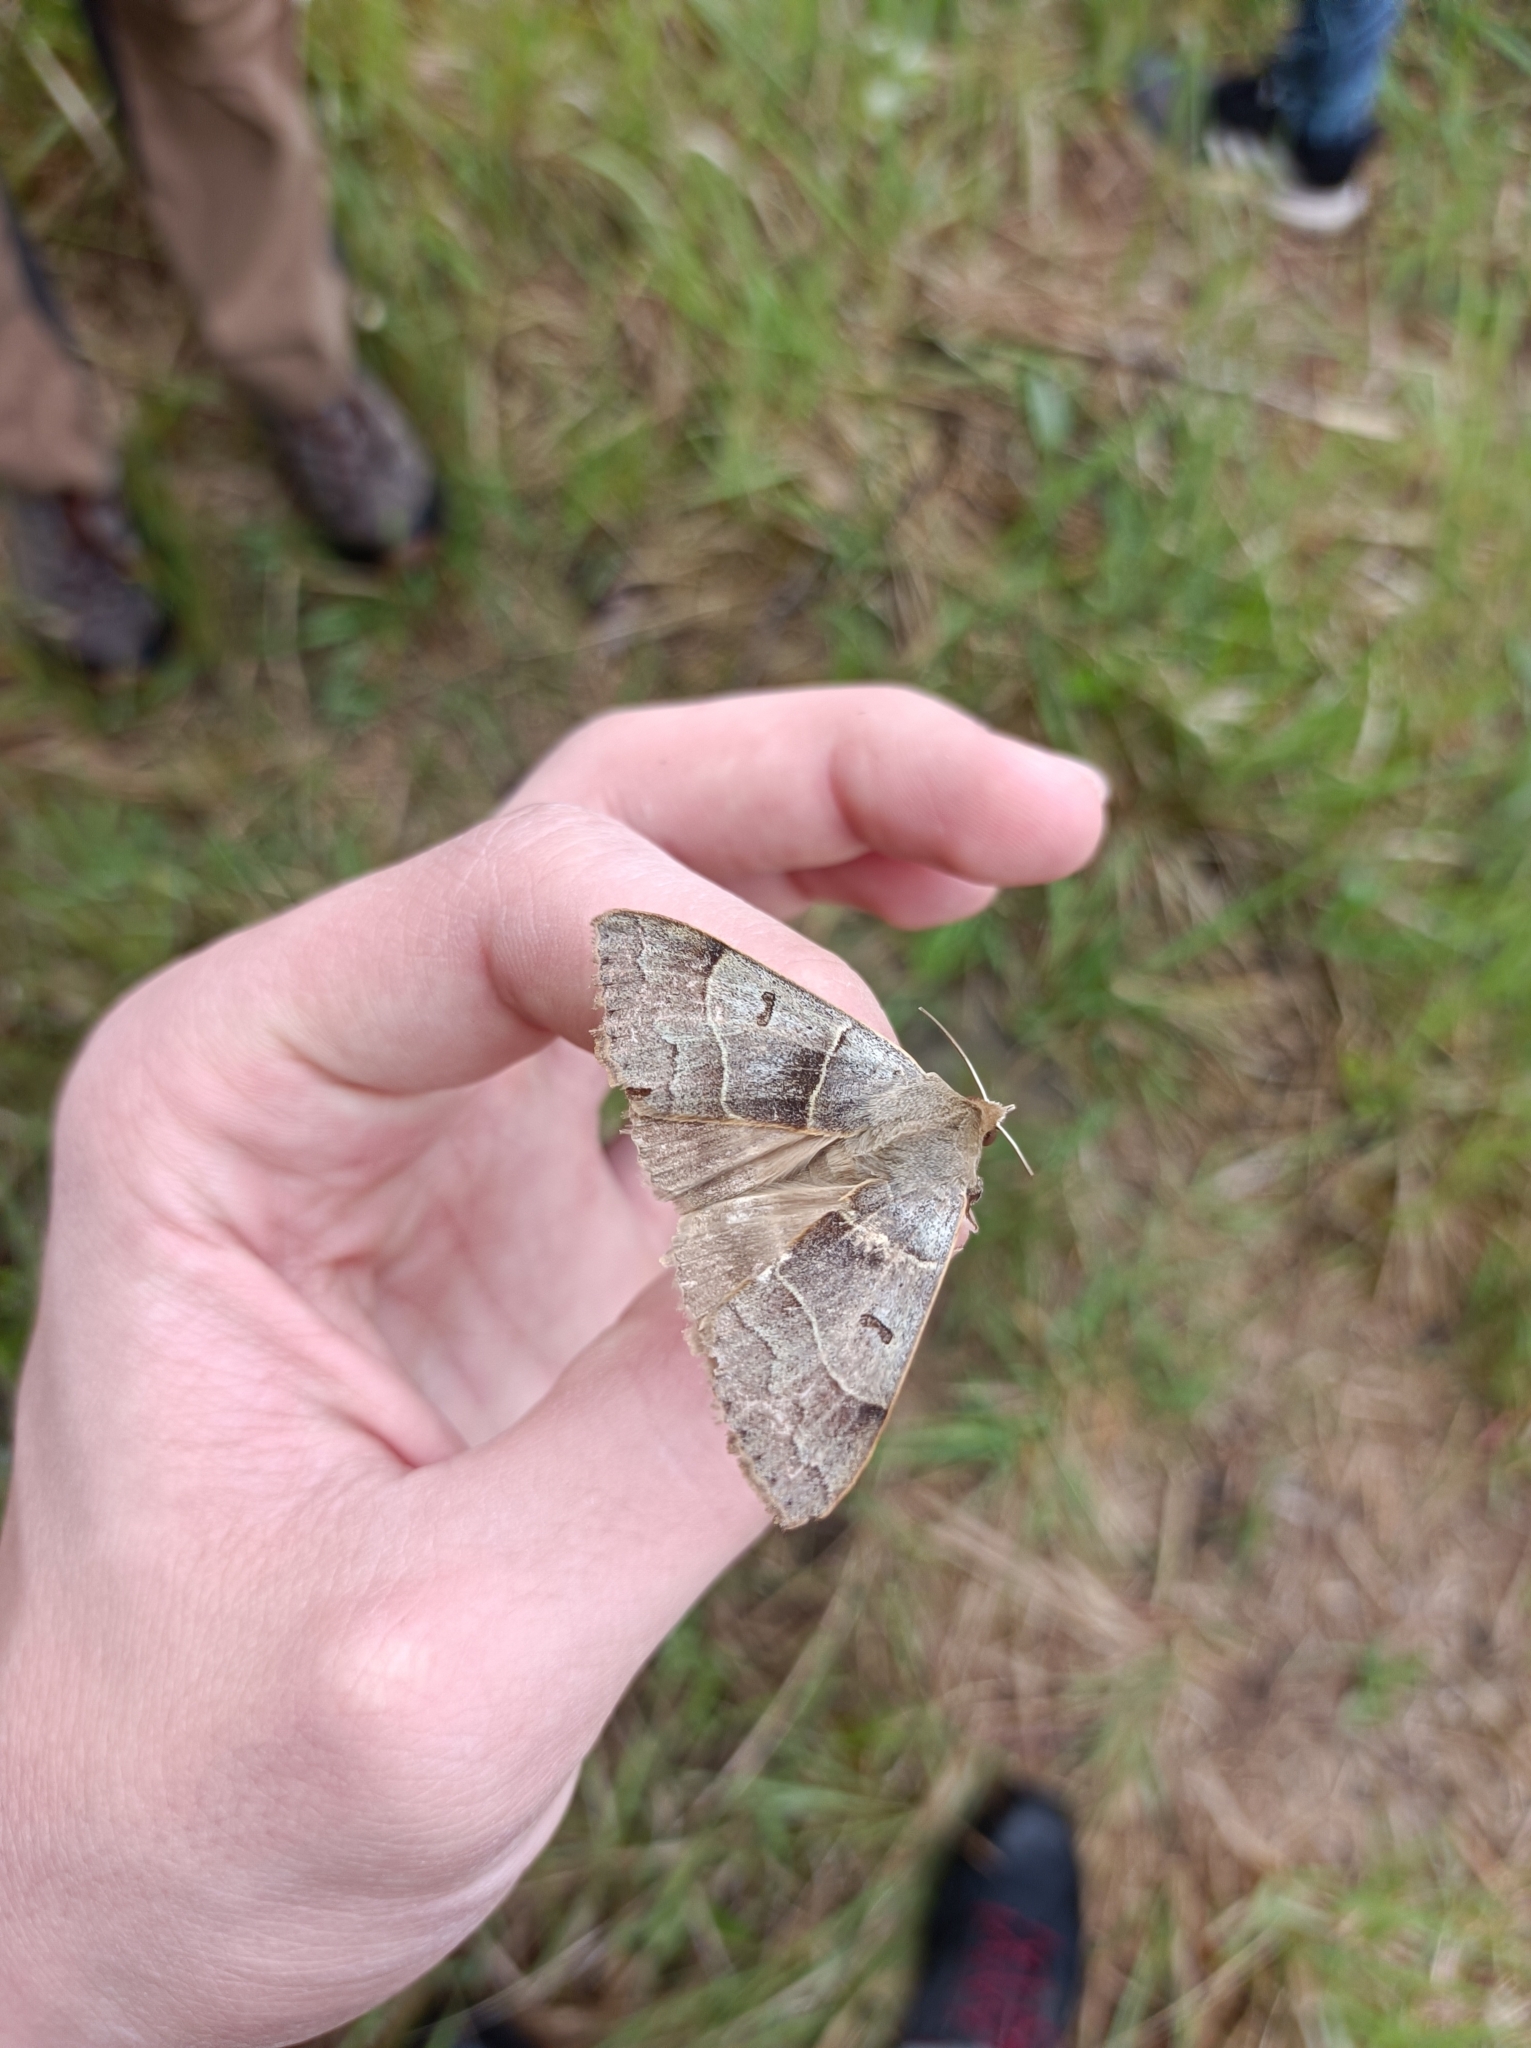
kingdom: Animalia
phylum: Arthropoda
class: Insecta
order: Lepidoptera
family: Erebidae
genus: Minucia
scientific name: Minucia lunaris
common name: Lunar double-stripe
